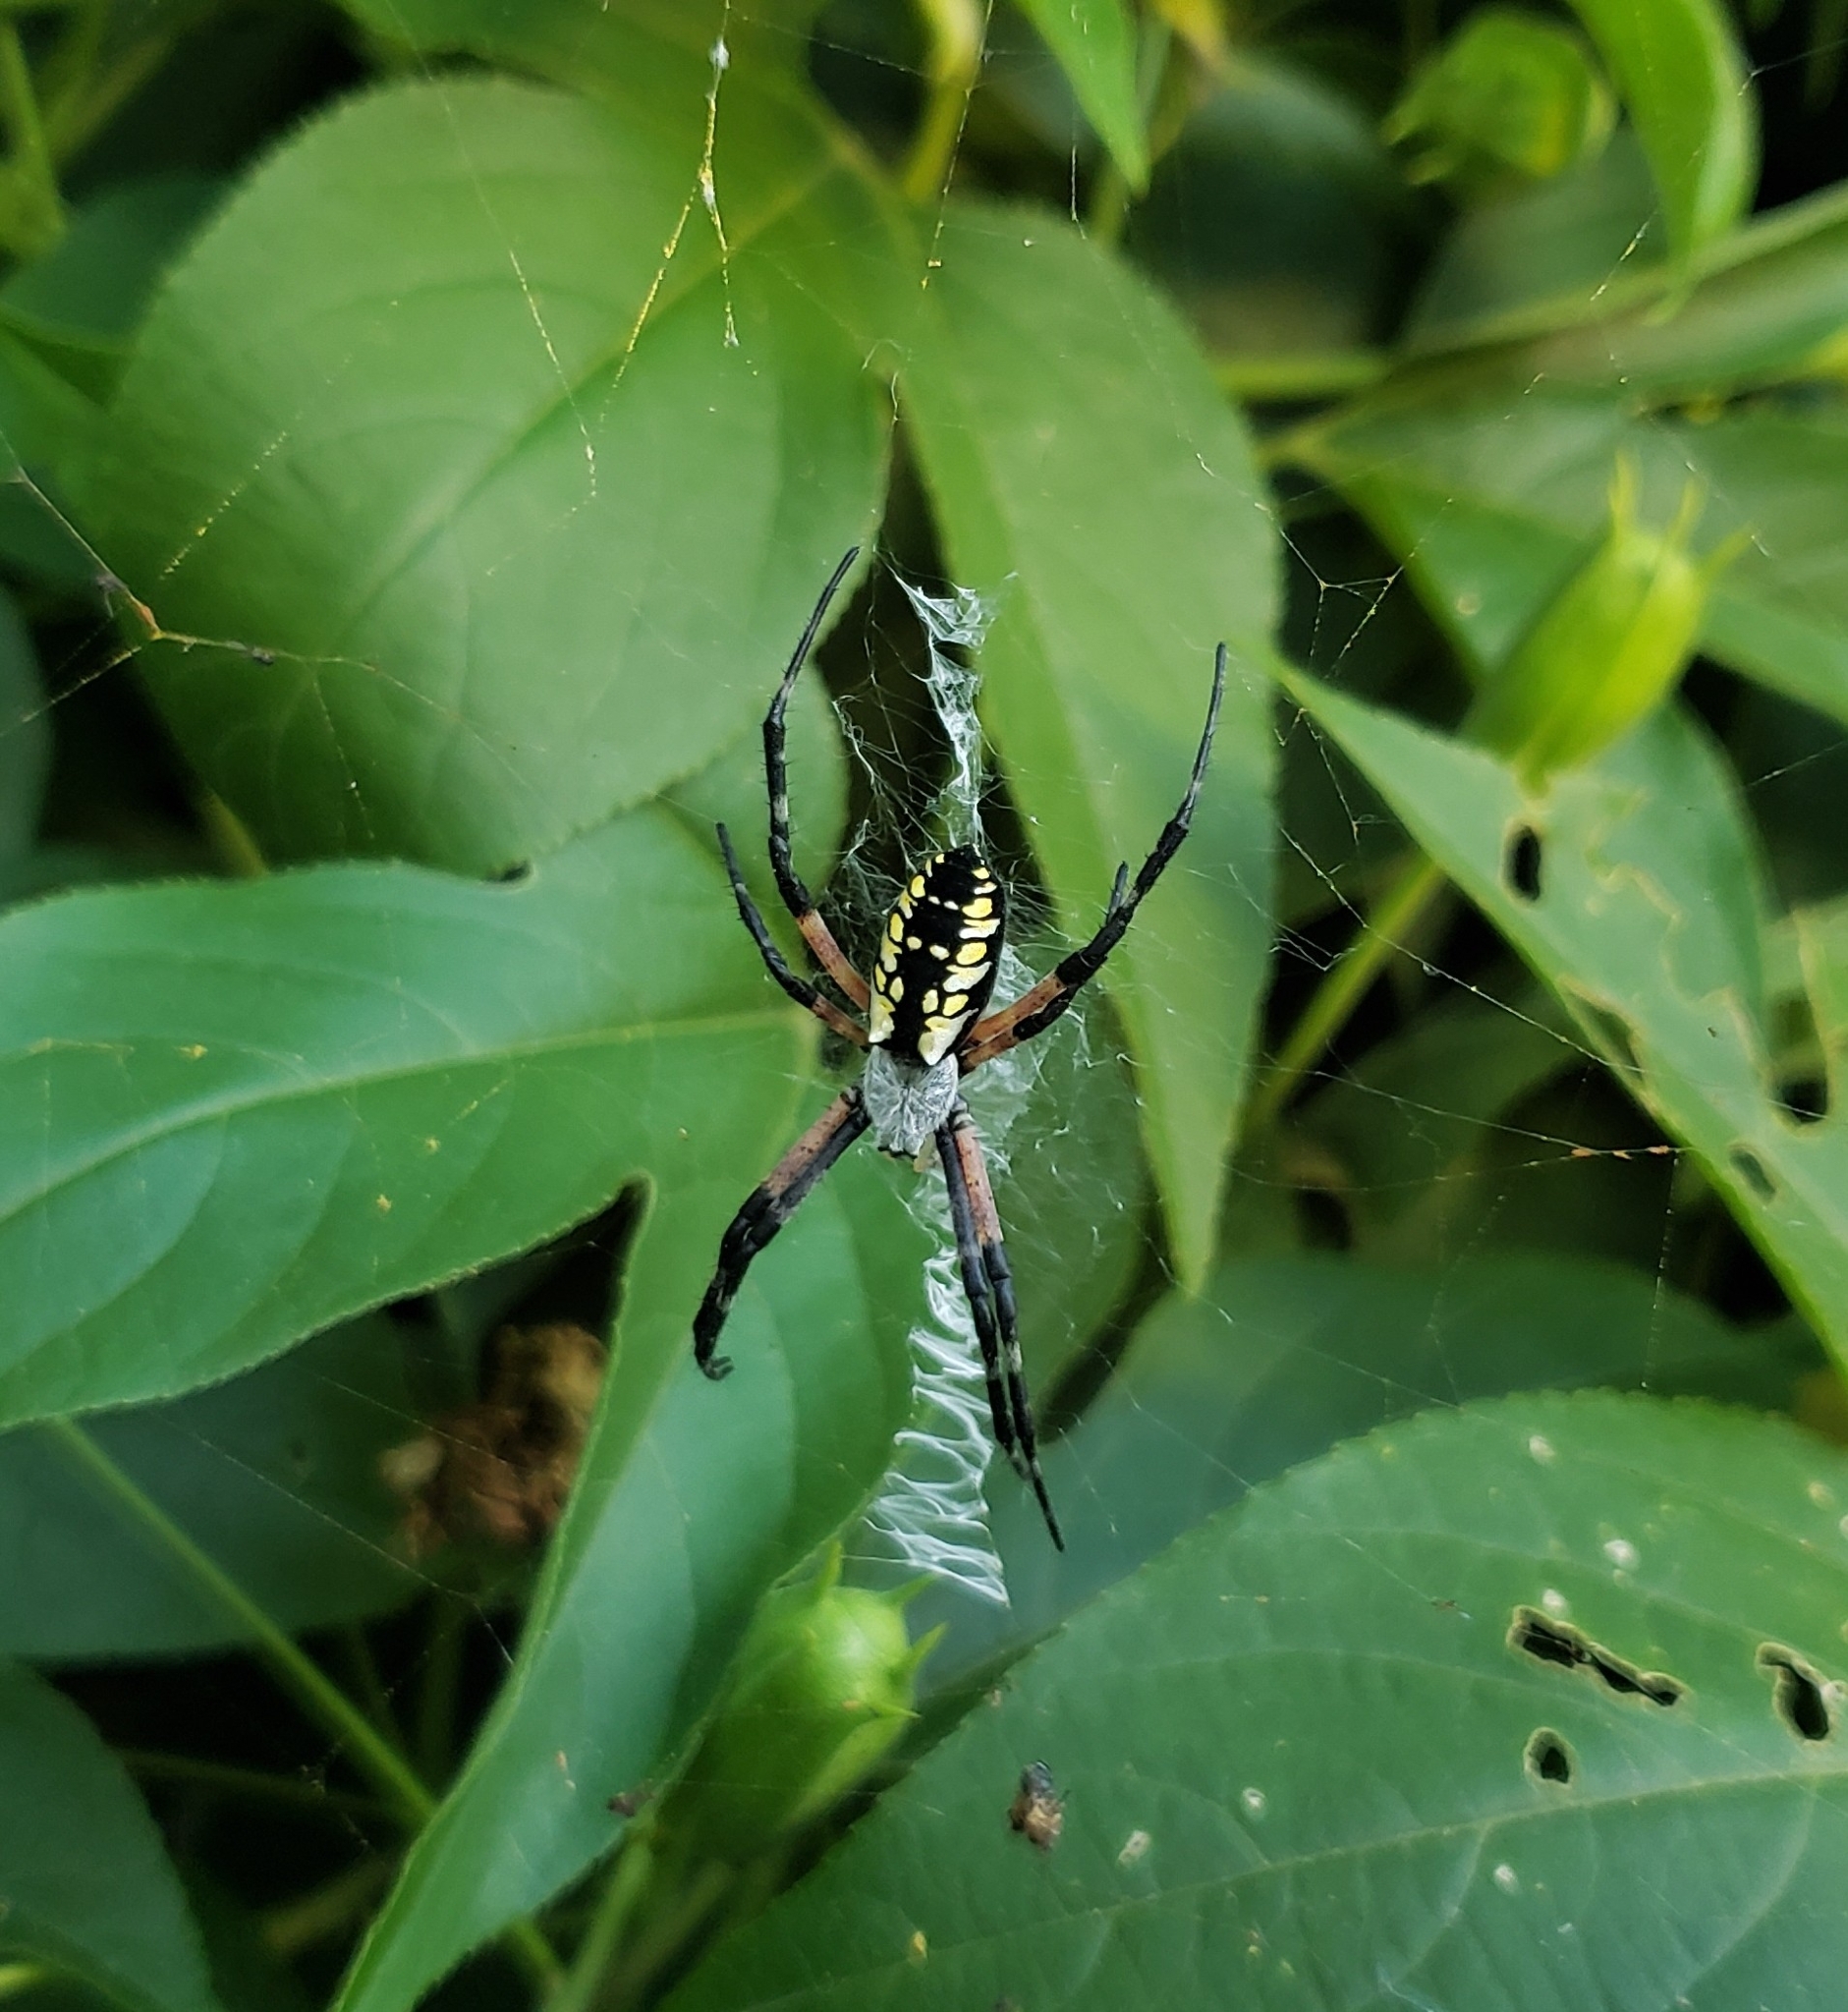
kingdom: Animalia
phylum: Arthropoda
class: Arachnida
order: Araneae
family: Araneidae
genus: Argiope
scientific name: Argiope aurantia
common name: Orb weavers
